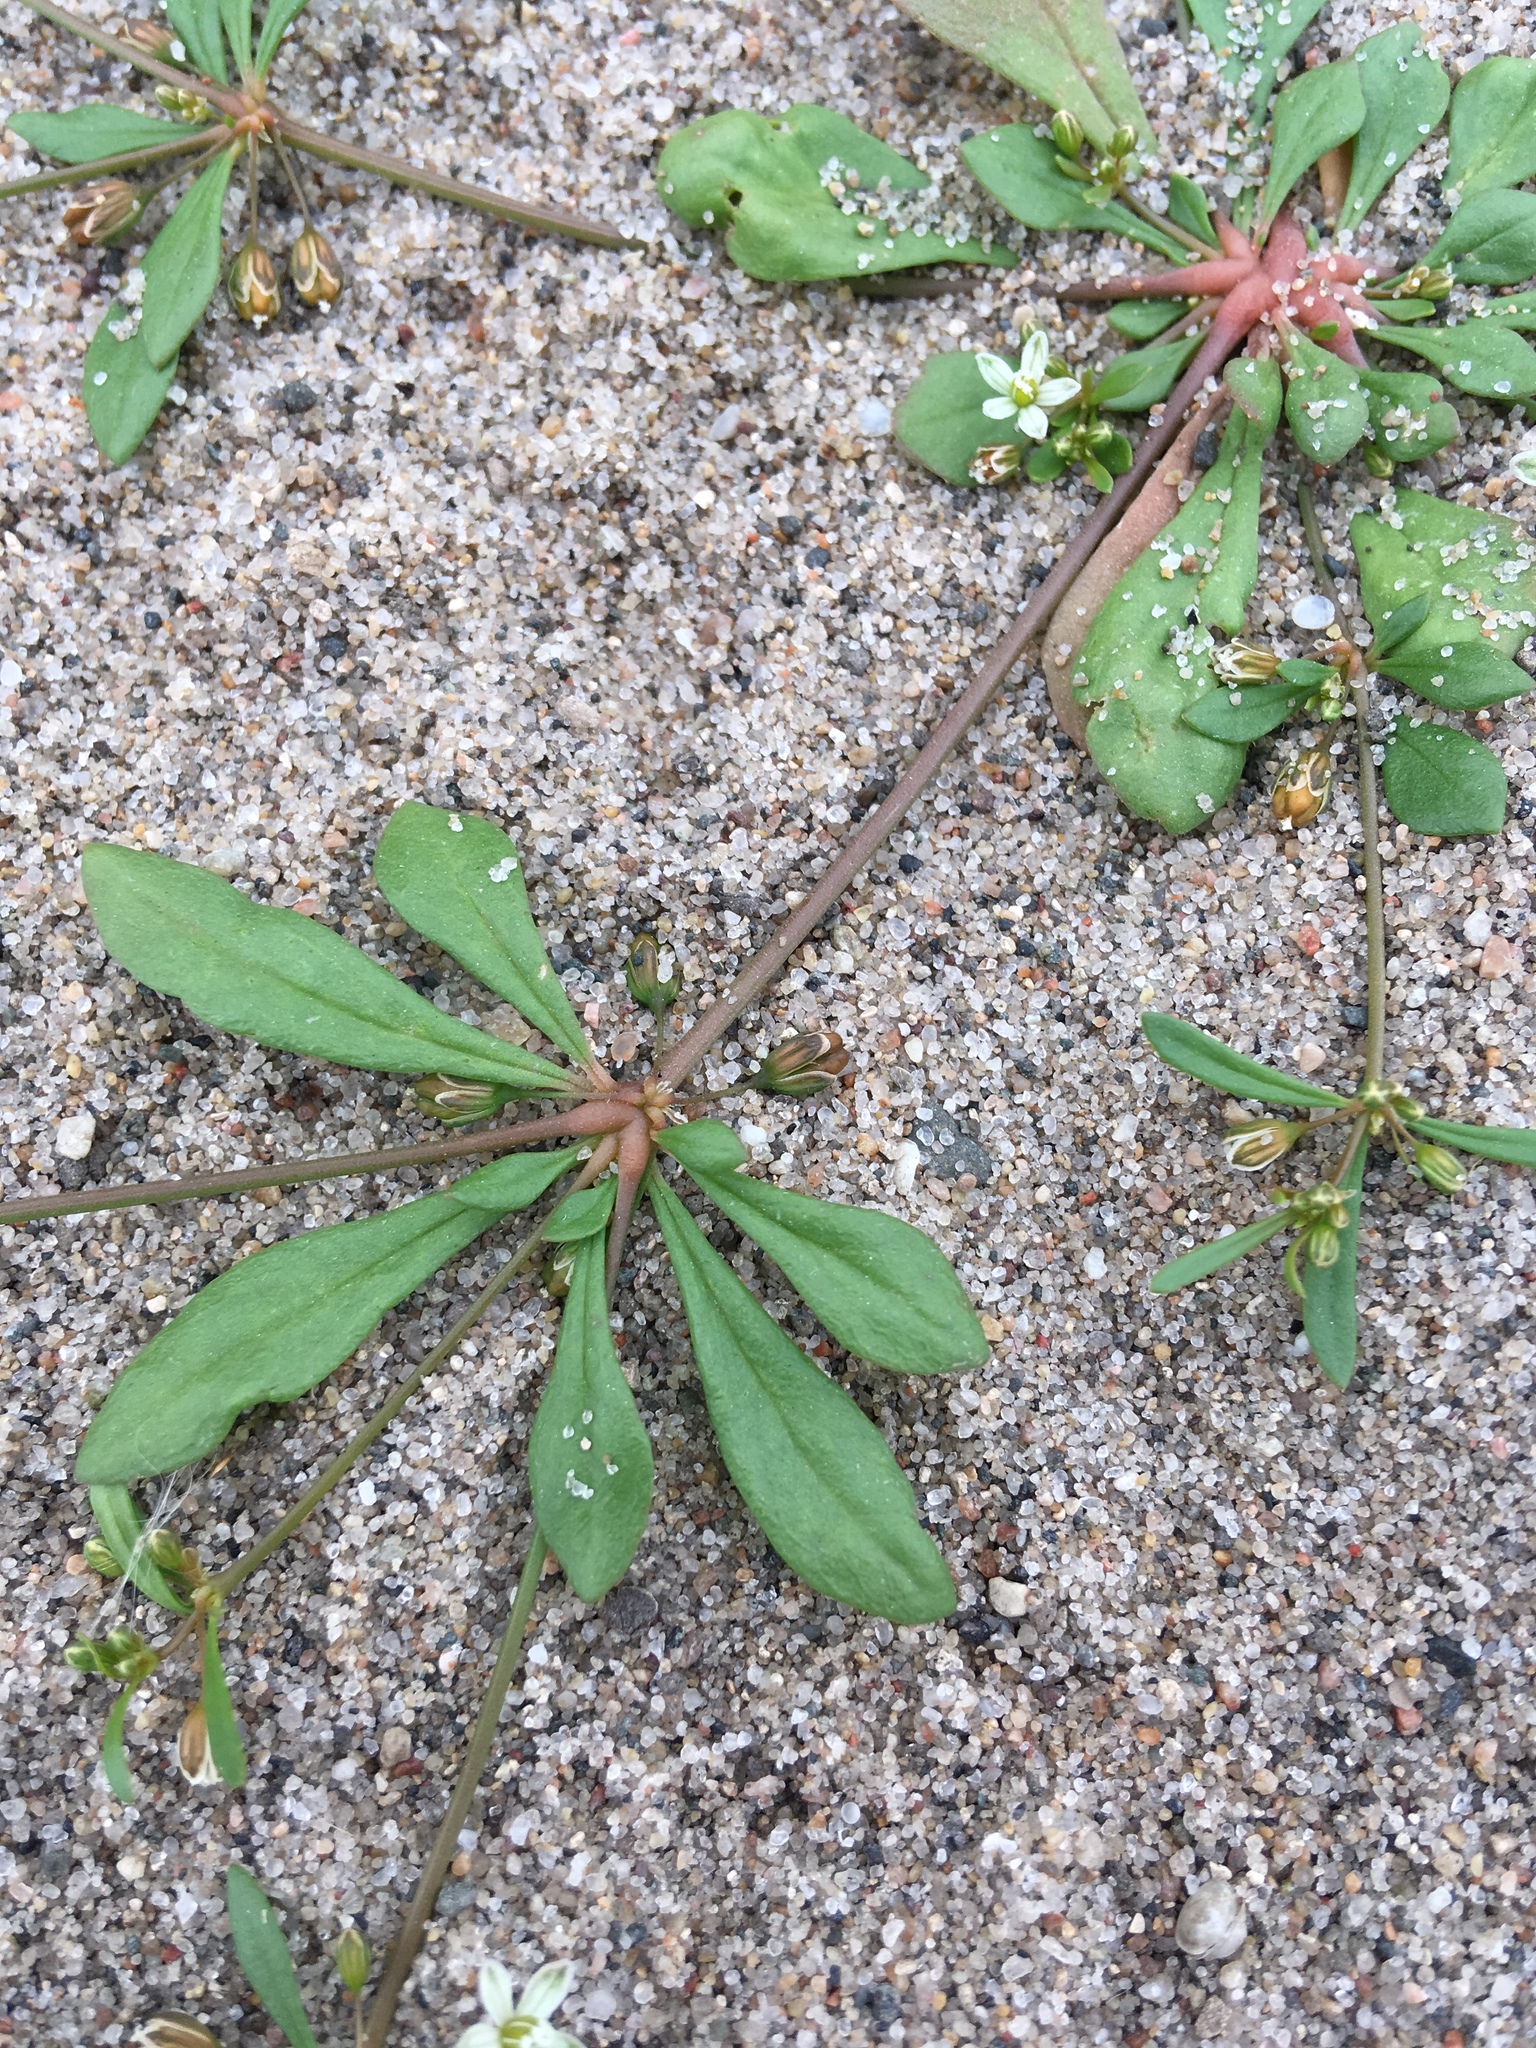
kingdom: Plantae
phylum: Tracheophyta
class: Magnoliopsida
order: Caryophyllales
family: Molluginaceae
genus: Mollugo
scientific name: Mollugo verticillata
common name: Green carpetweed
